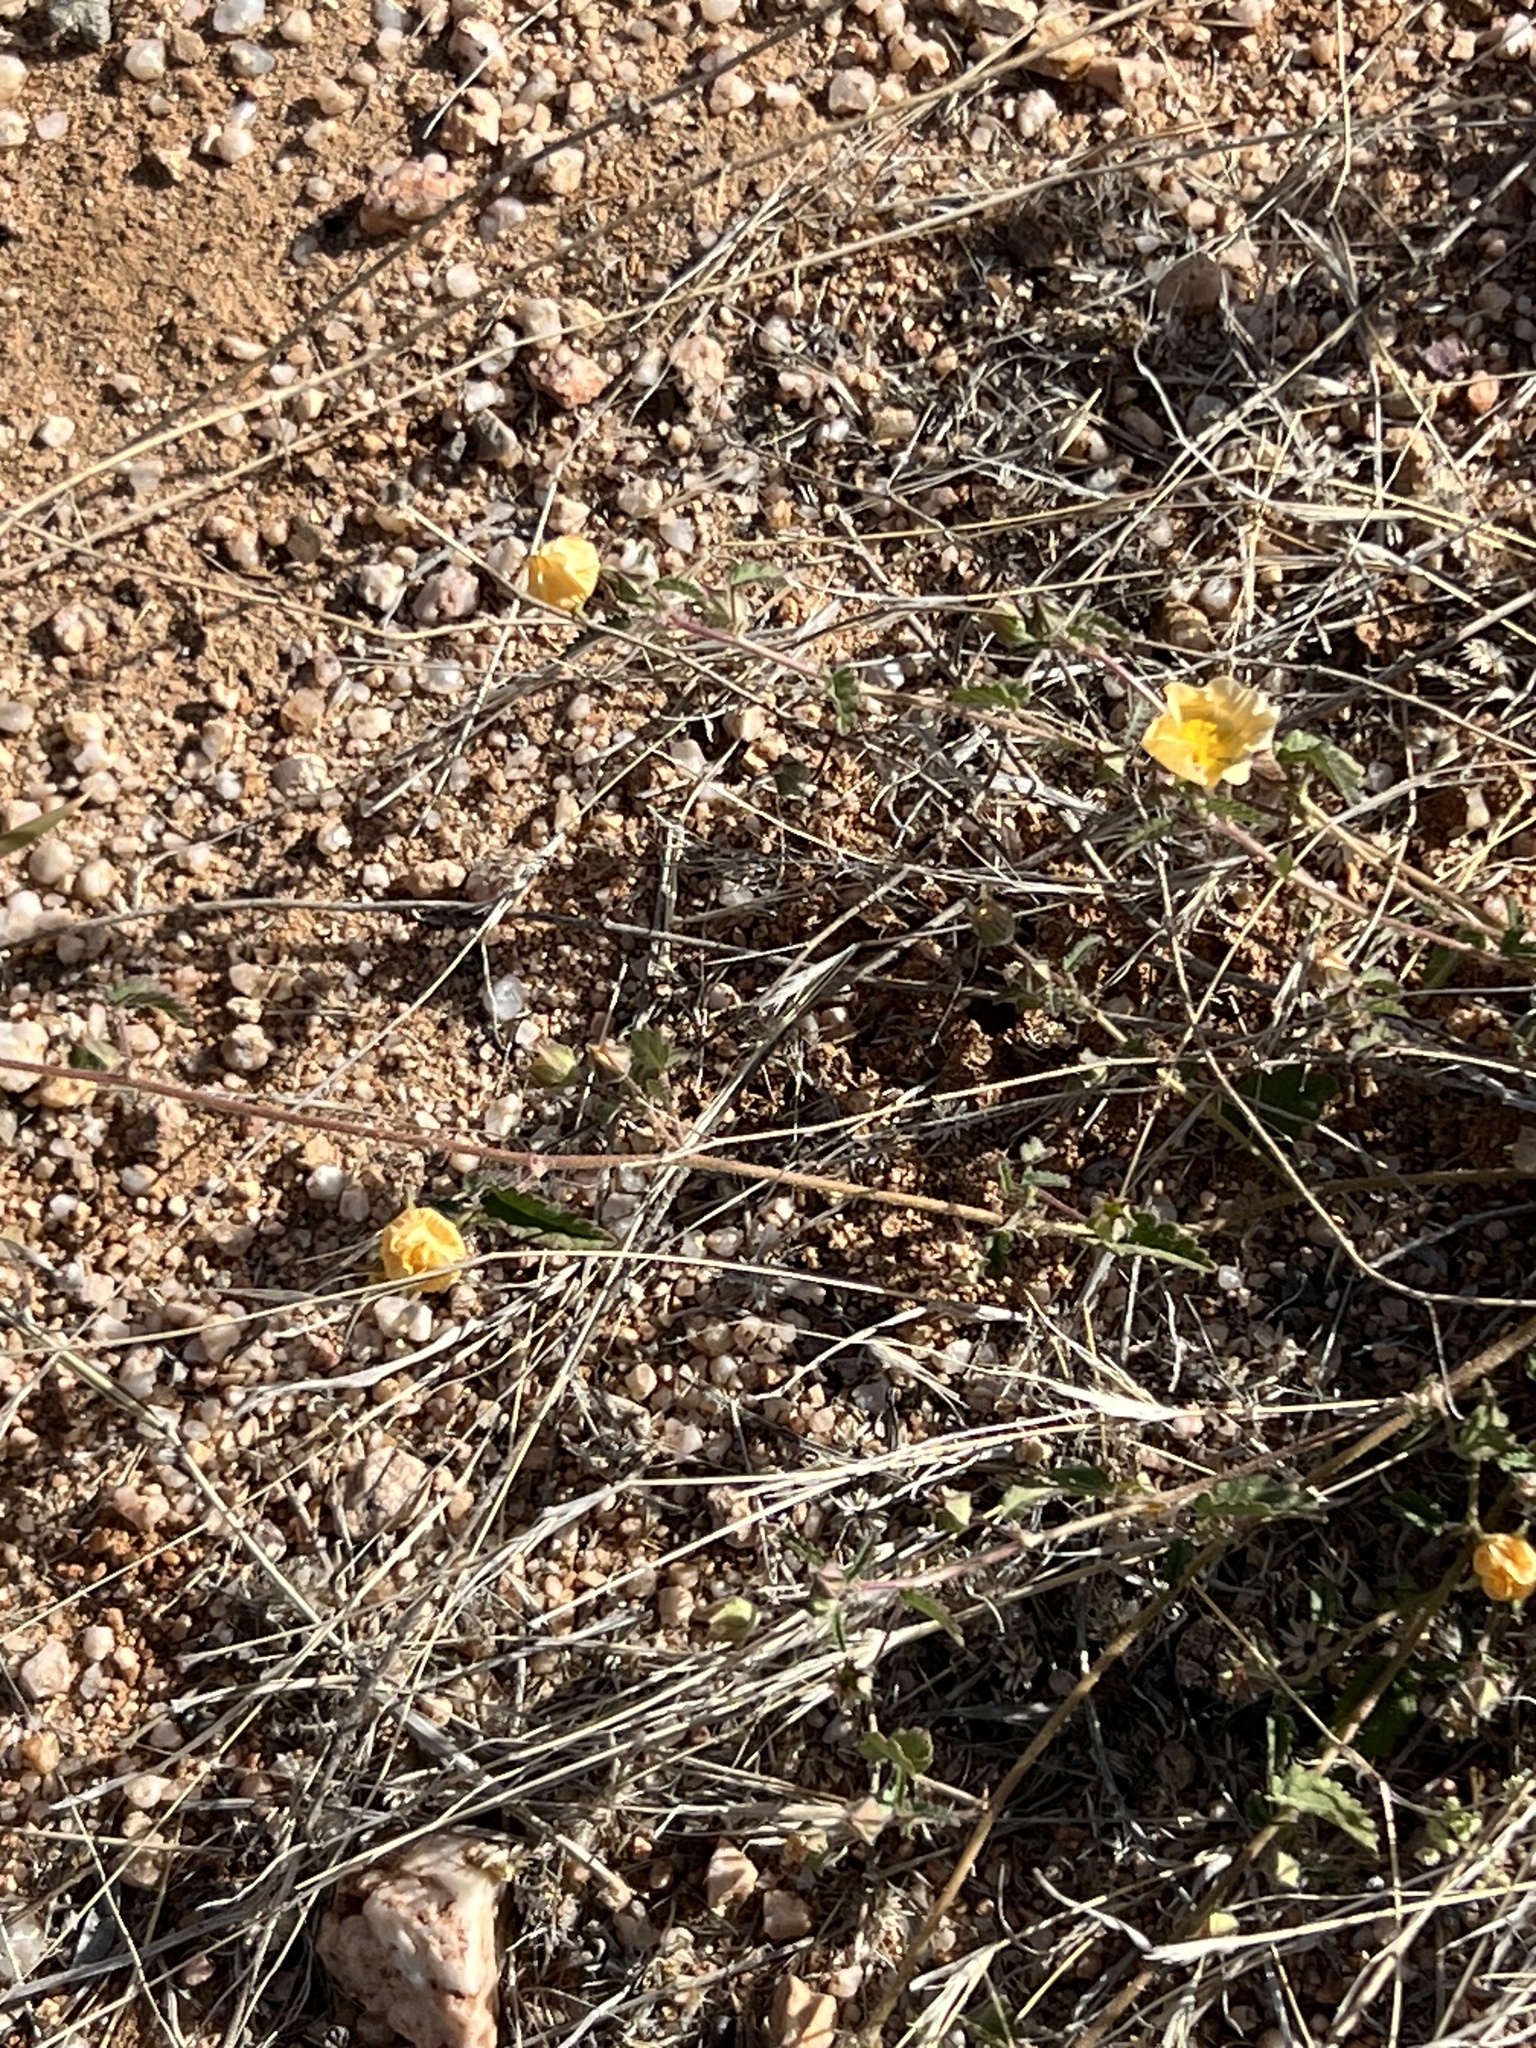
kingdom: Plantae
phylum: Tracheophyta
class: Magnoliopsida
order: Malvales
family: Malvaceae
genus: Sida
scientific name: Sida abutilifolia
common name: Spreading fanpetals
